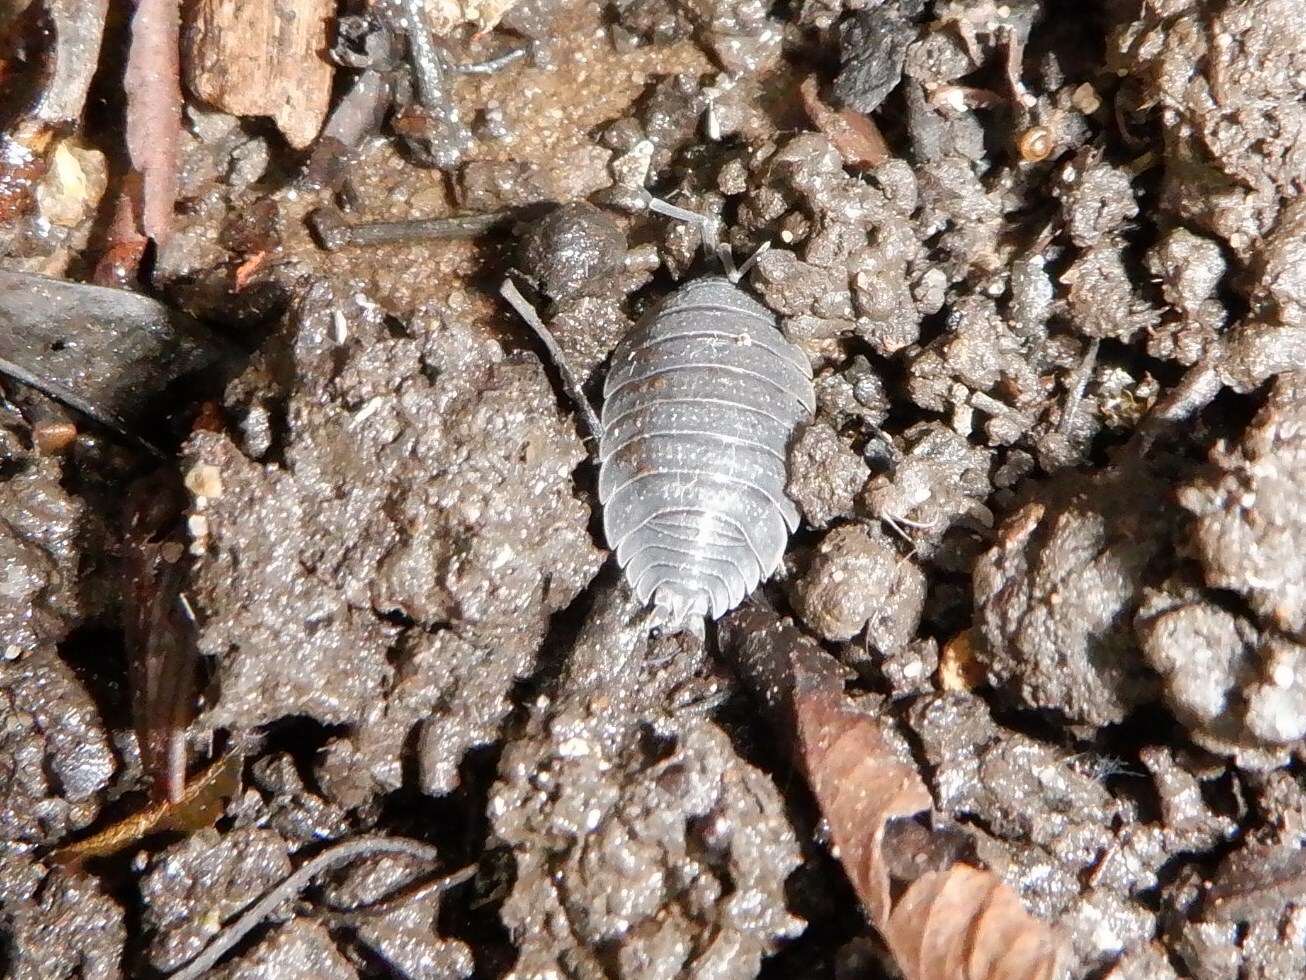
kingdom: Animalia
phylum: Arthropoda
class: Malacostraca
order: Isopoda
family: Porcellionidae
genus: Porcellio
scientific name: Porcellio scaber
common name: Common rough woodlouse
